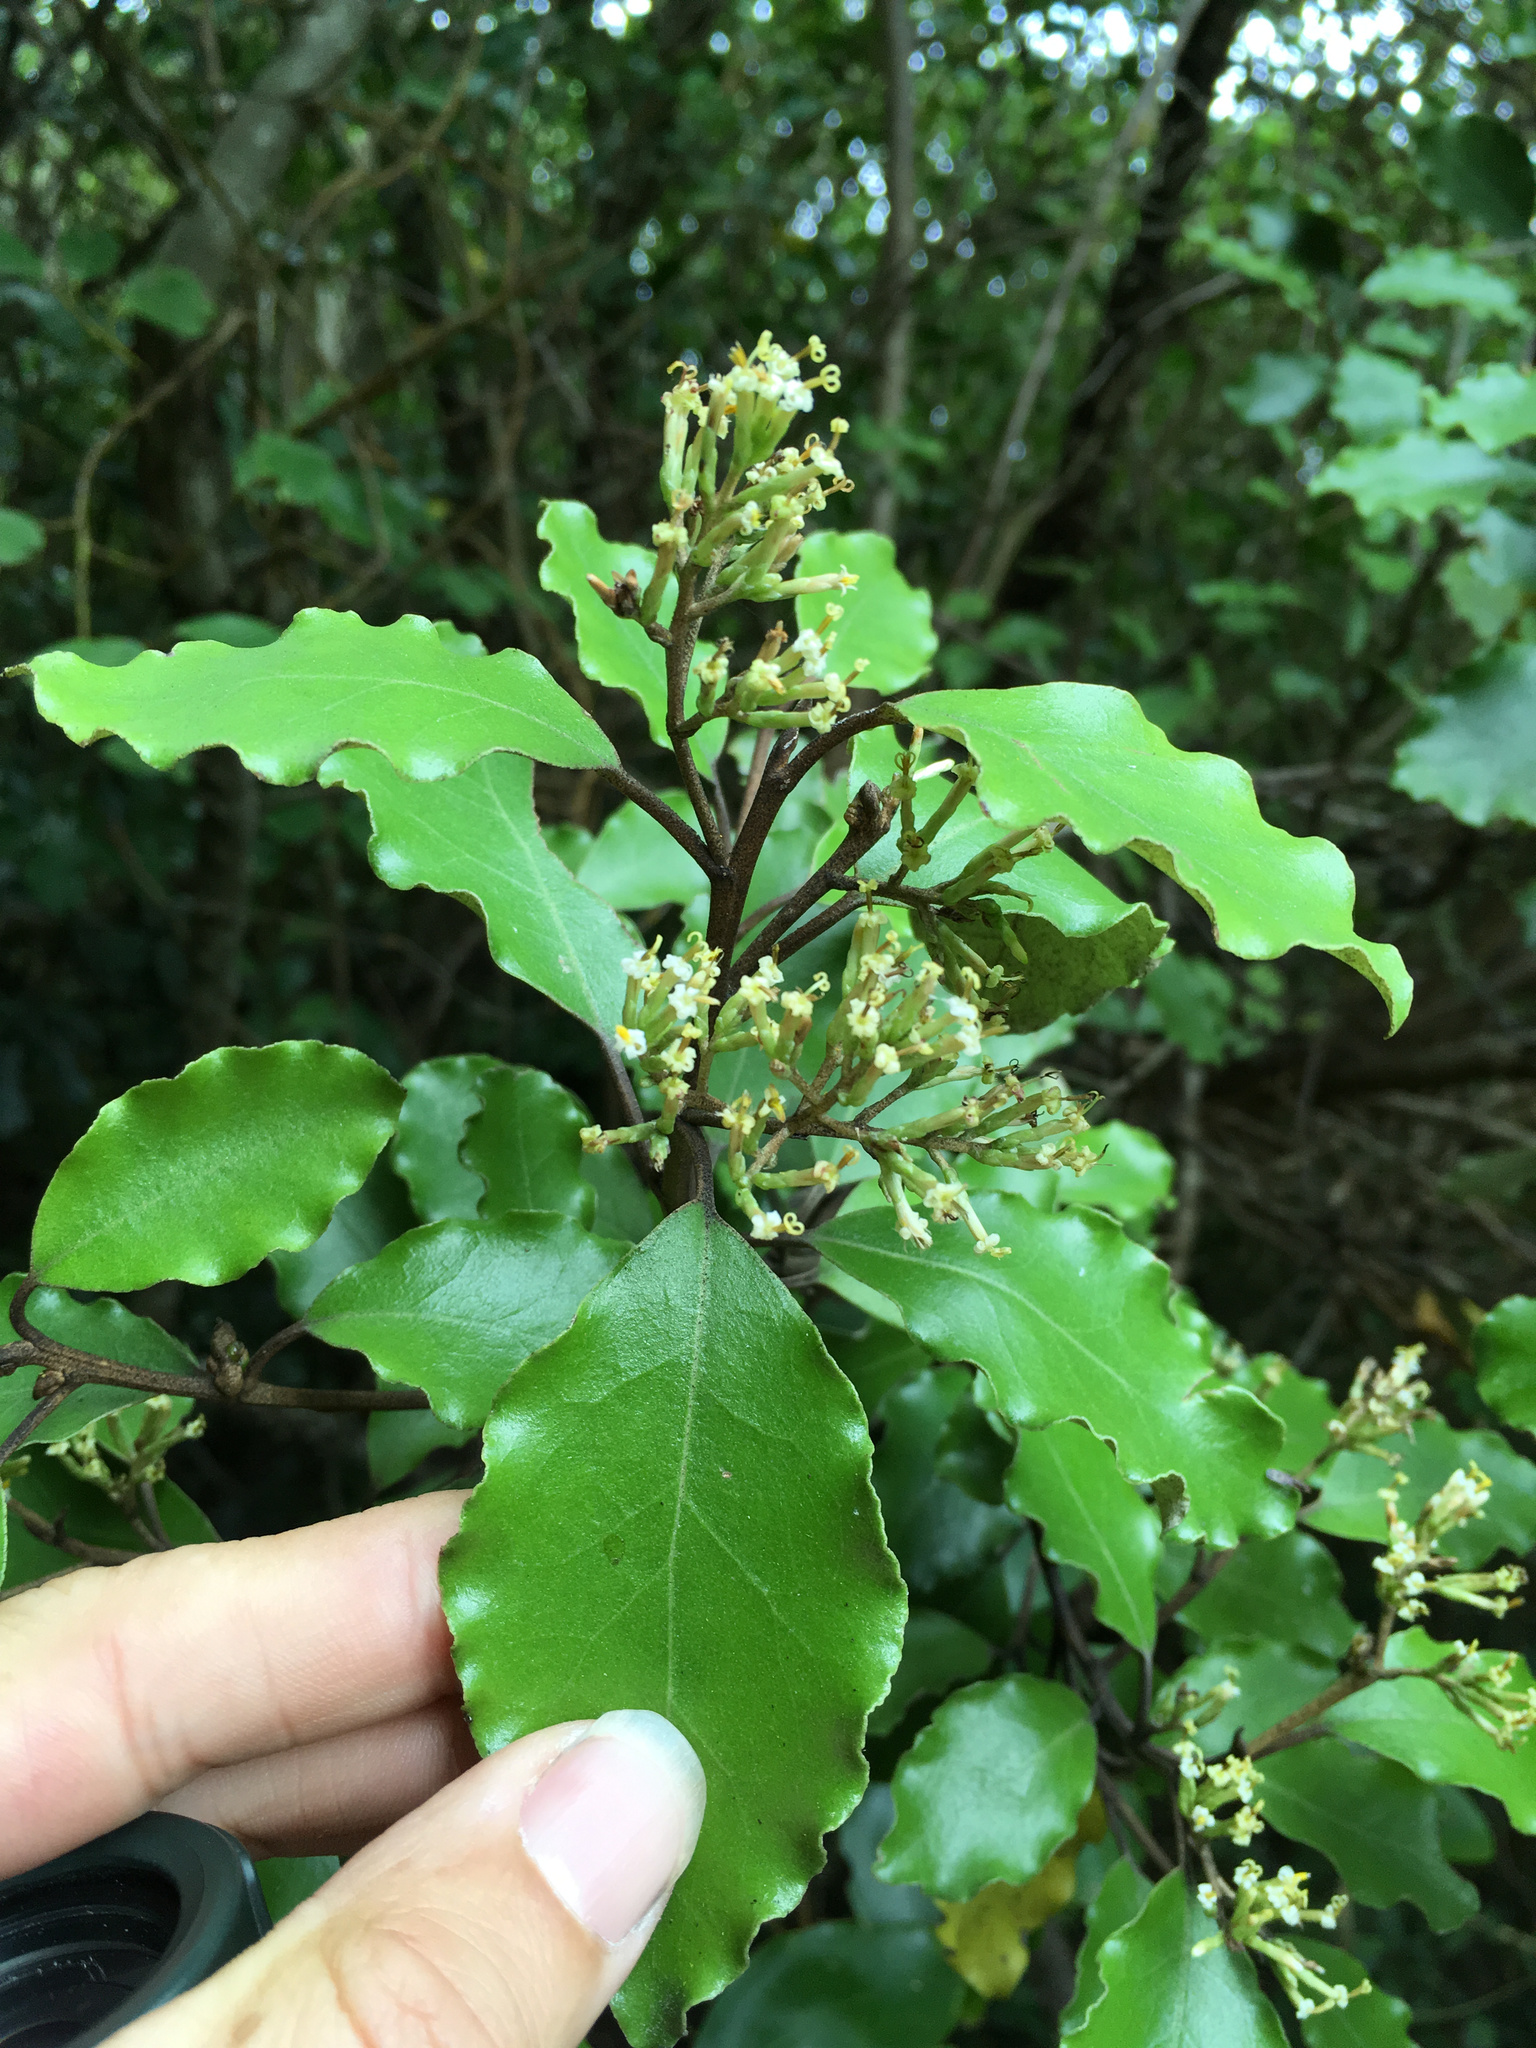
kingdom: Plantae
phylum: Tracheophyta
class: Magnoliopsida
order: Asterales
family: Asteraceae
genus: Olearia
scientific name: Olearia paniculata
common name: Akiraho
